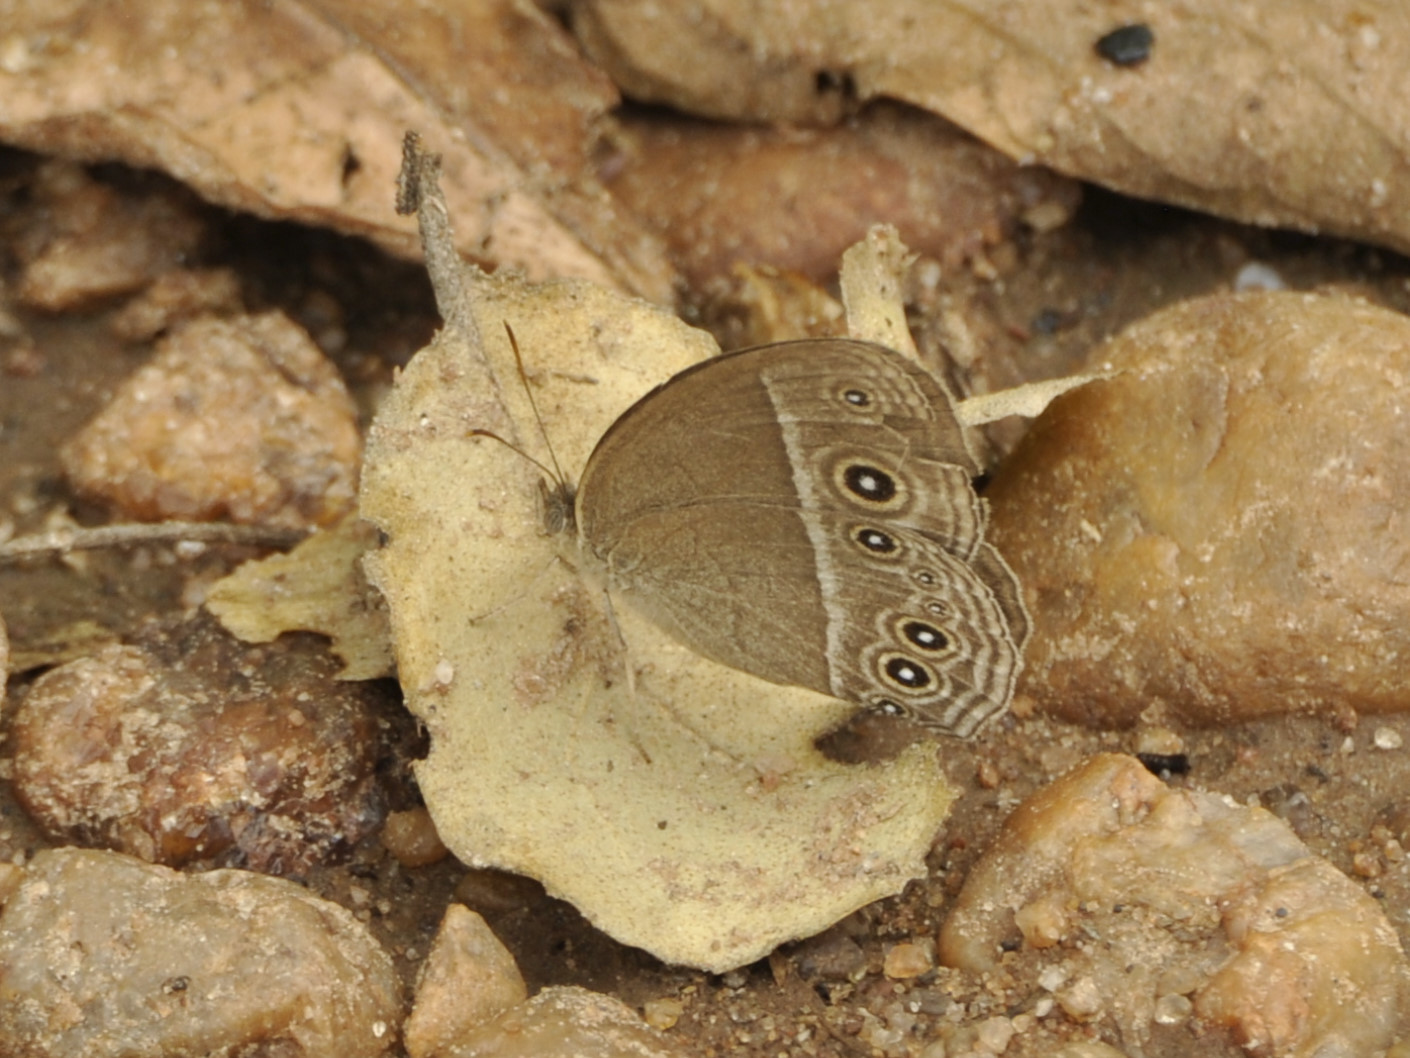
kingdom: Animalia
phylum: Arthropoda
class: Insecta
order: Lepidoptera
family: Nymphalidae
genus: Brakefieldia
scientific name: Brakefieldia simonsii
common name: Pale patroller
